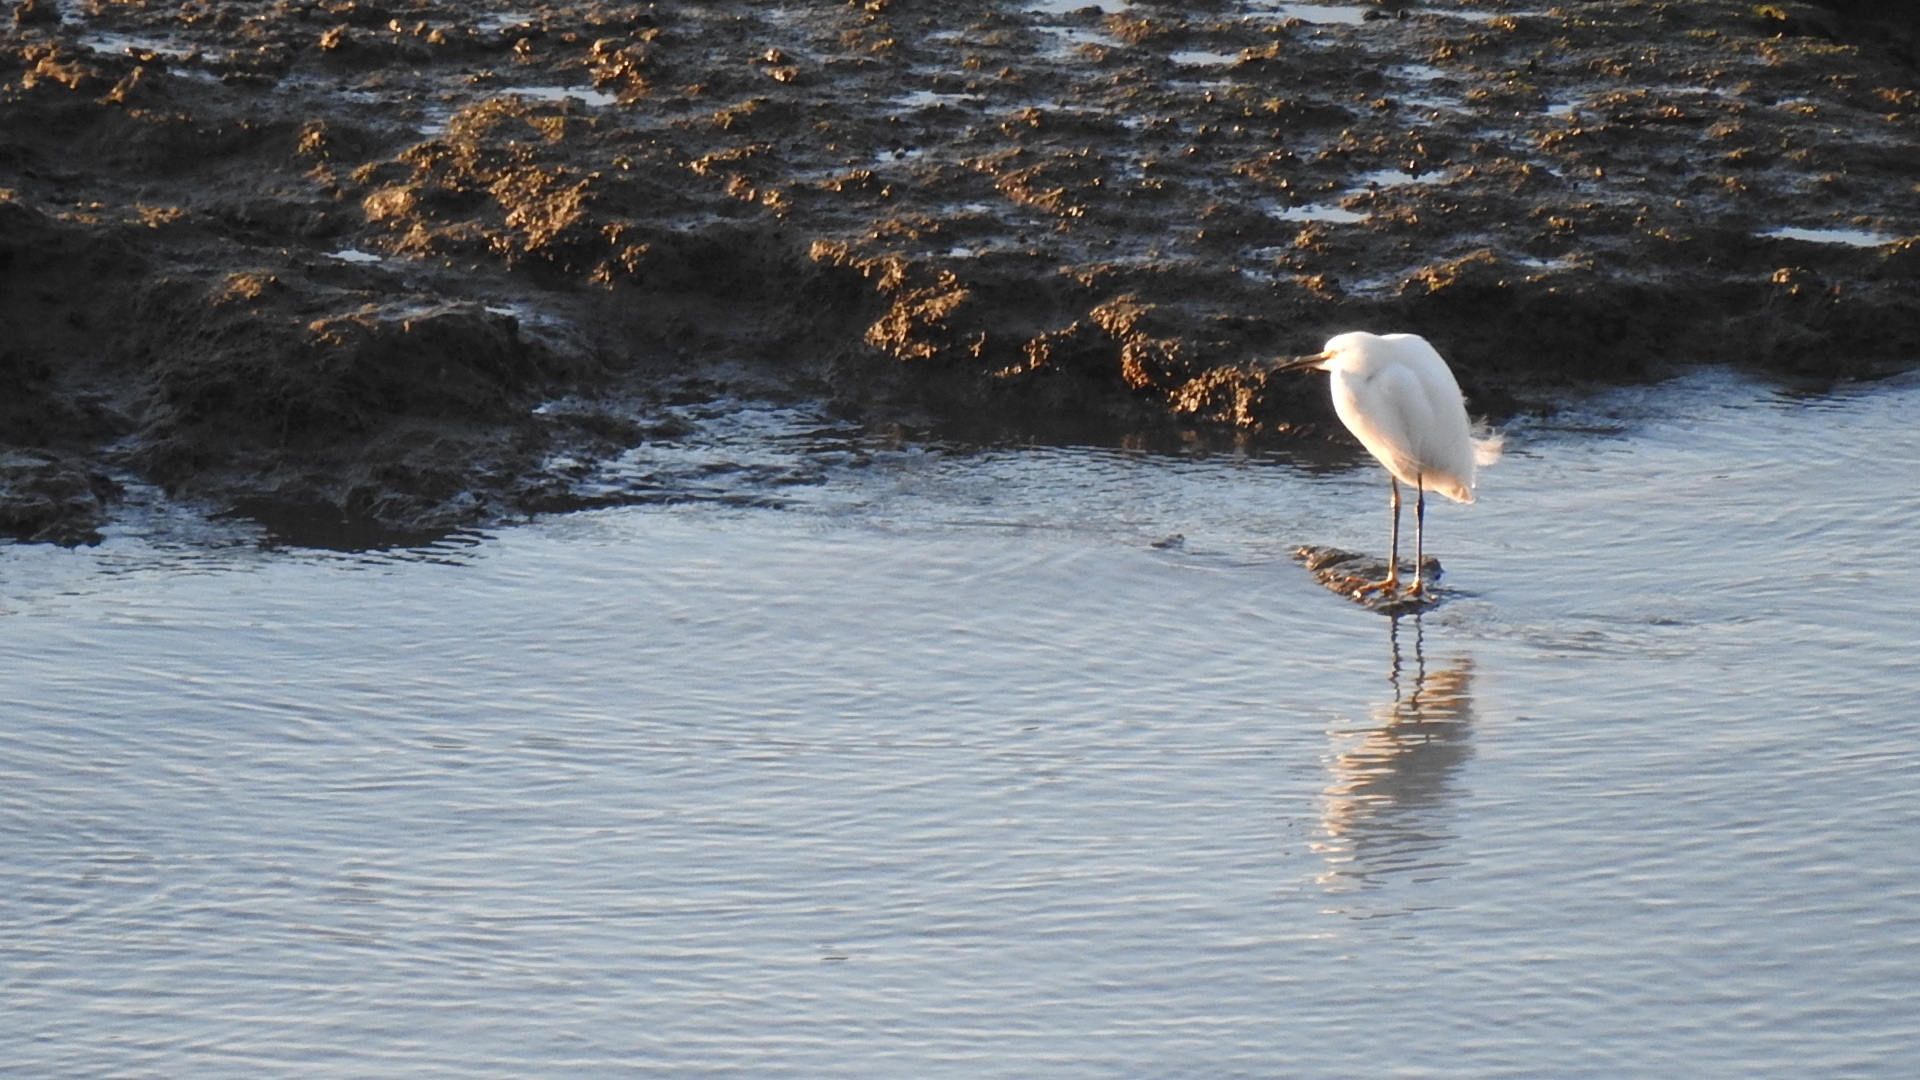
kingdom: Animalia
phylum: Chordata
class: Aves
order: Pelecaniformes
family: Ardeidae
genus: Egretta
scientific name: Egretta thula
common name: Snowy egret
